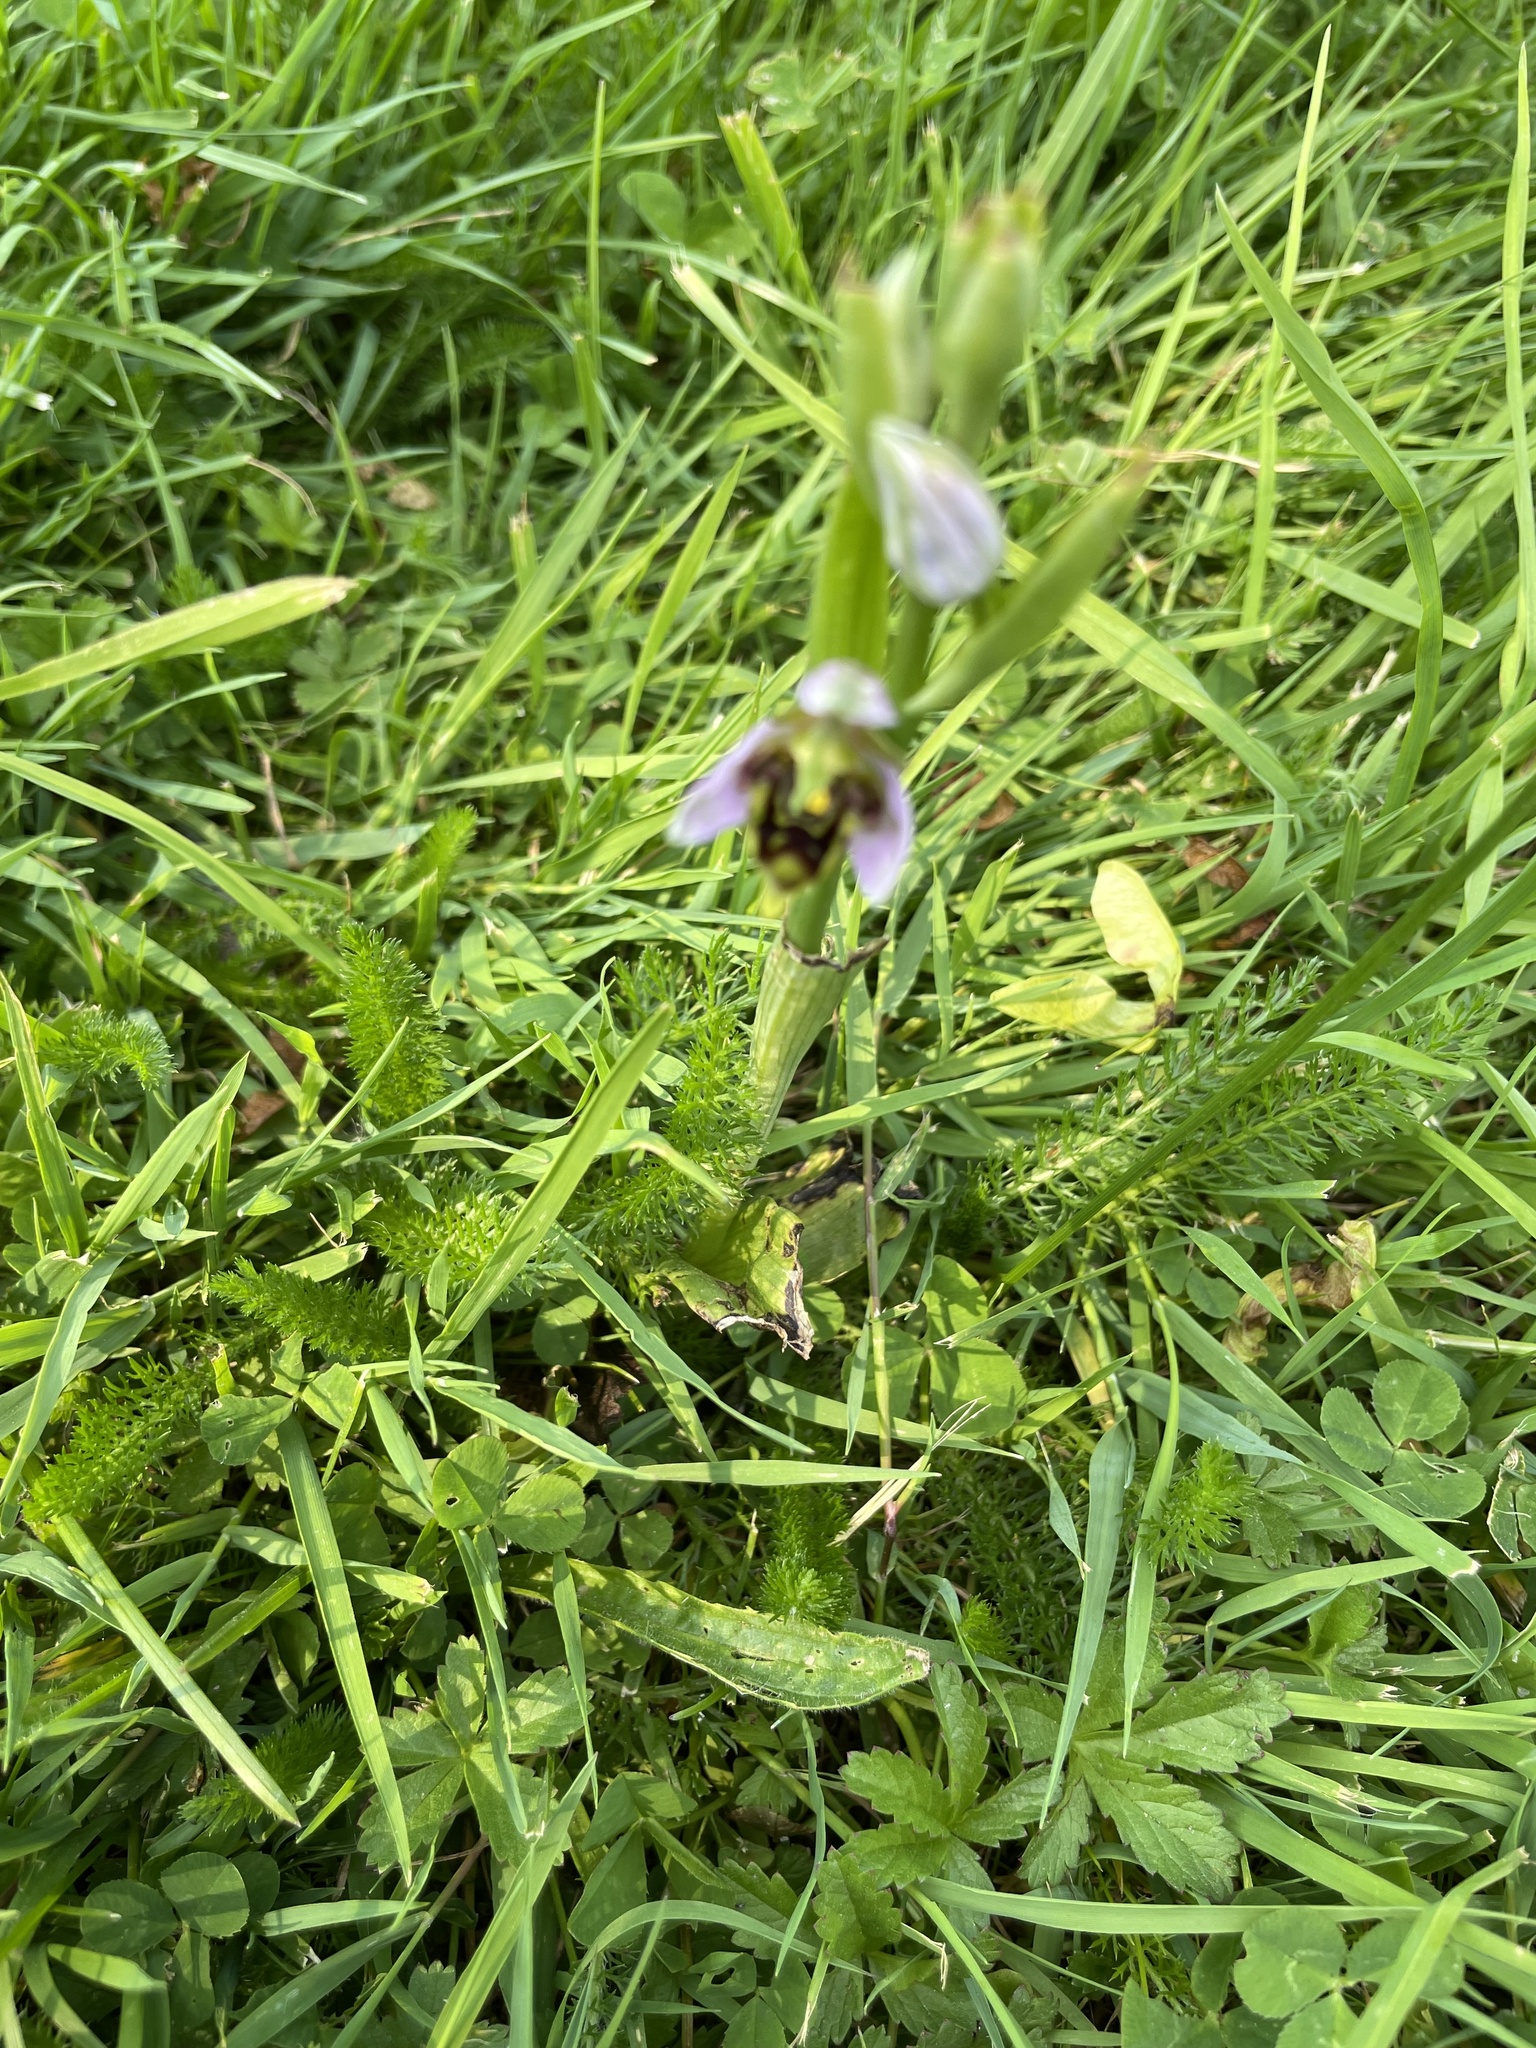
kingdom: Plantae
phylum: Tracheophyta
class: Liliopsida
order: Asparagales
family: Orchidaceae
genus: Ophrys
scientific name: Ophrys apifera
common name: Bee orchid
